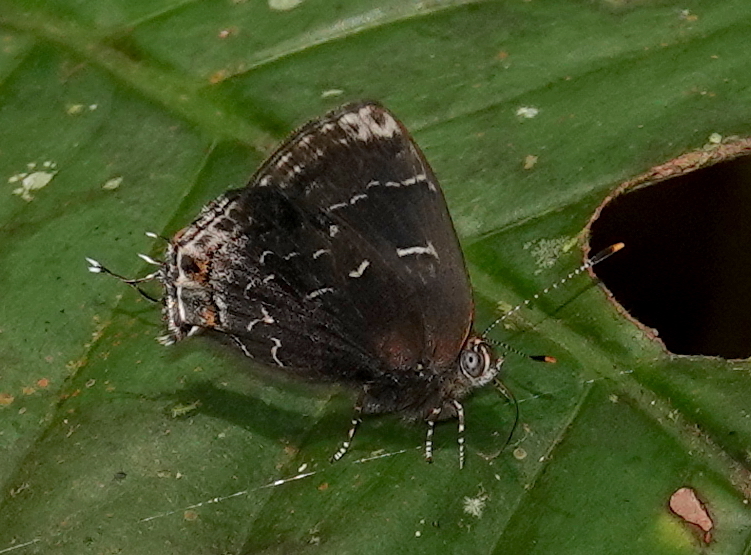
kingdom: Animalia
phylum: Arthropoda
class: Insecta
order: Lepidoptera
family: Lycaenidae
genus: Ocaria
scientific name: Ocaria ocrisia
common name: Black hairstreak
